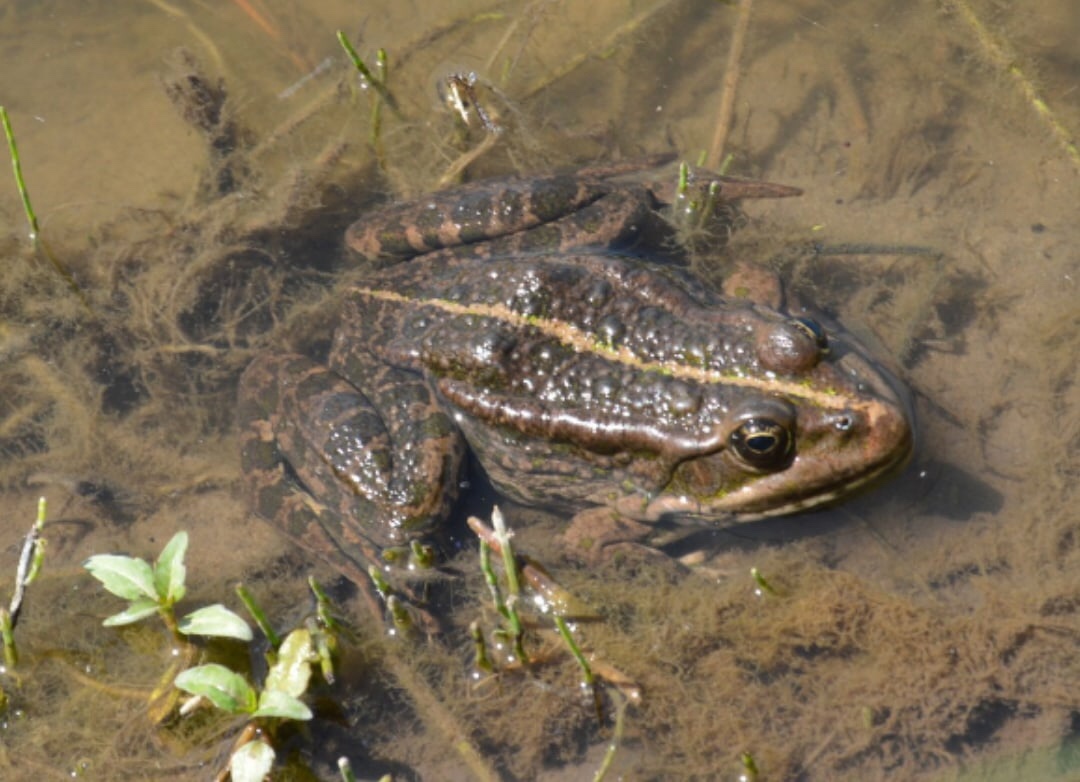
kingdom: Animalia
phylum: Chordata
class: Amphibia
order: Anura
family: Ranidae
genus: Pelophylax
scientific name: Pelophylax ridibundus
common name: Marsh frog
